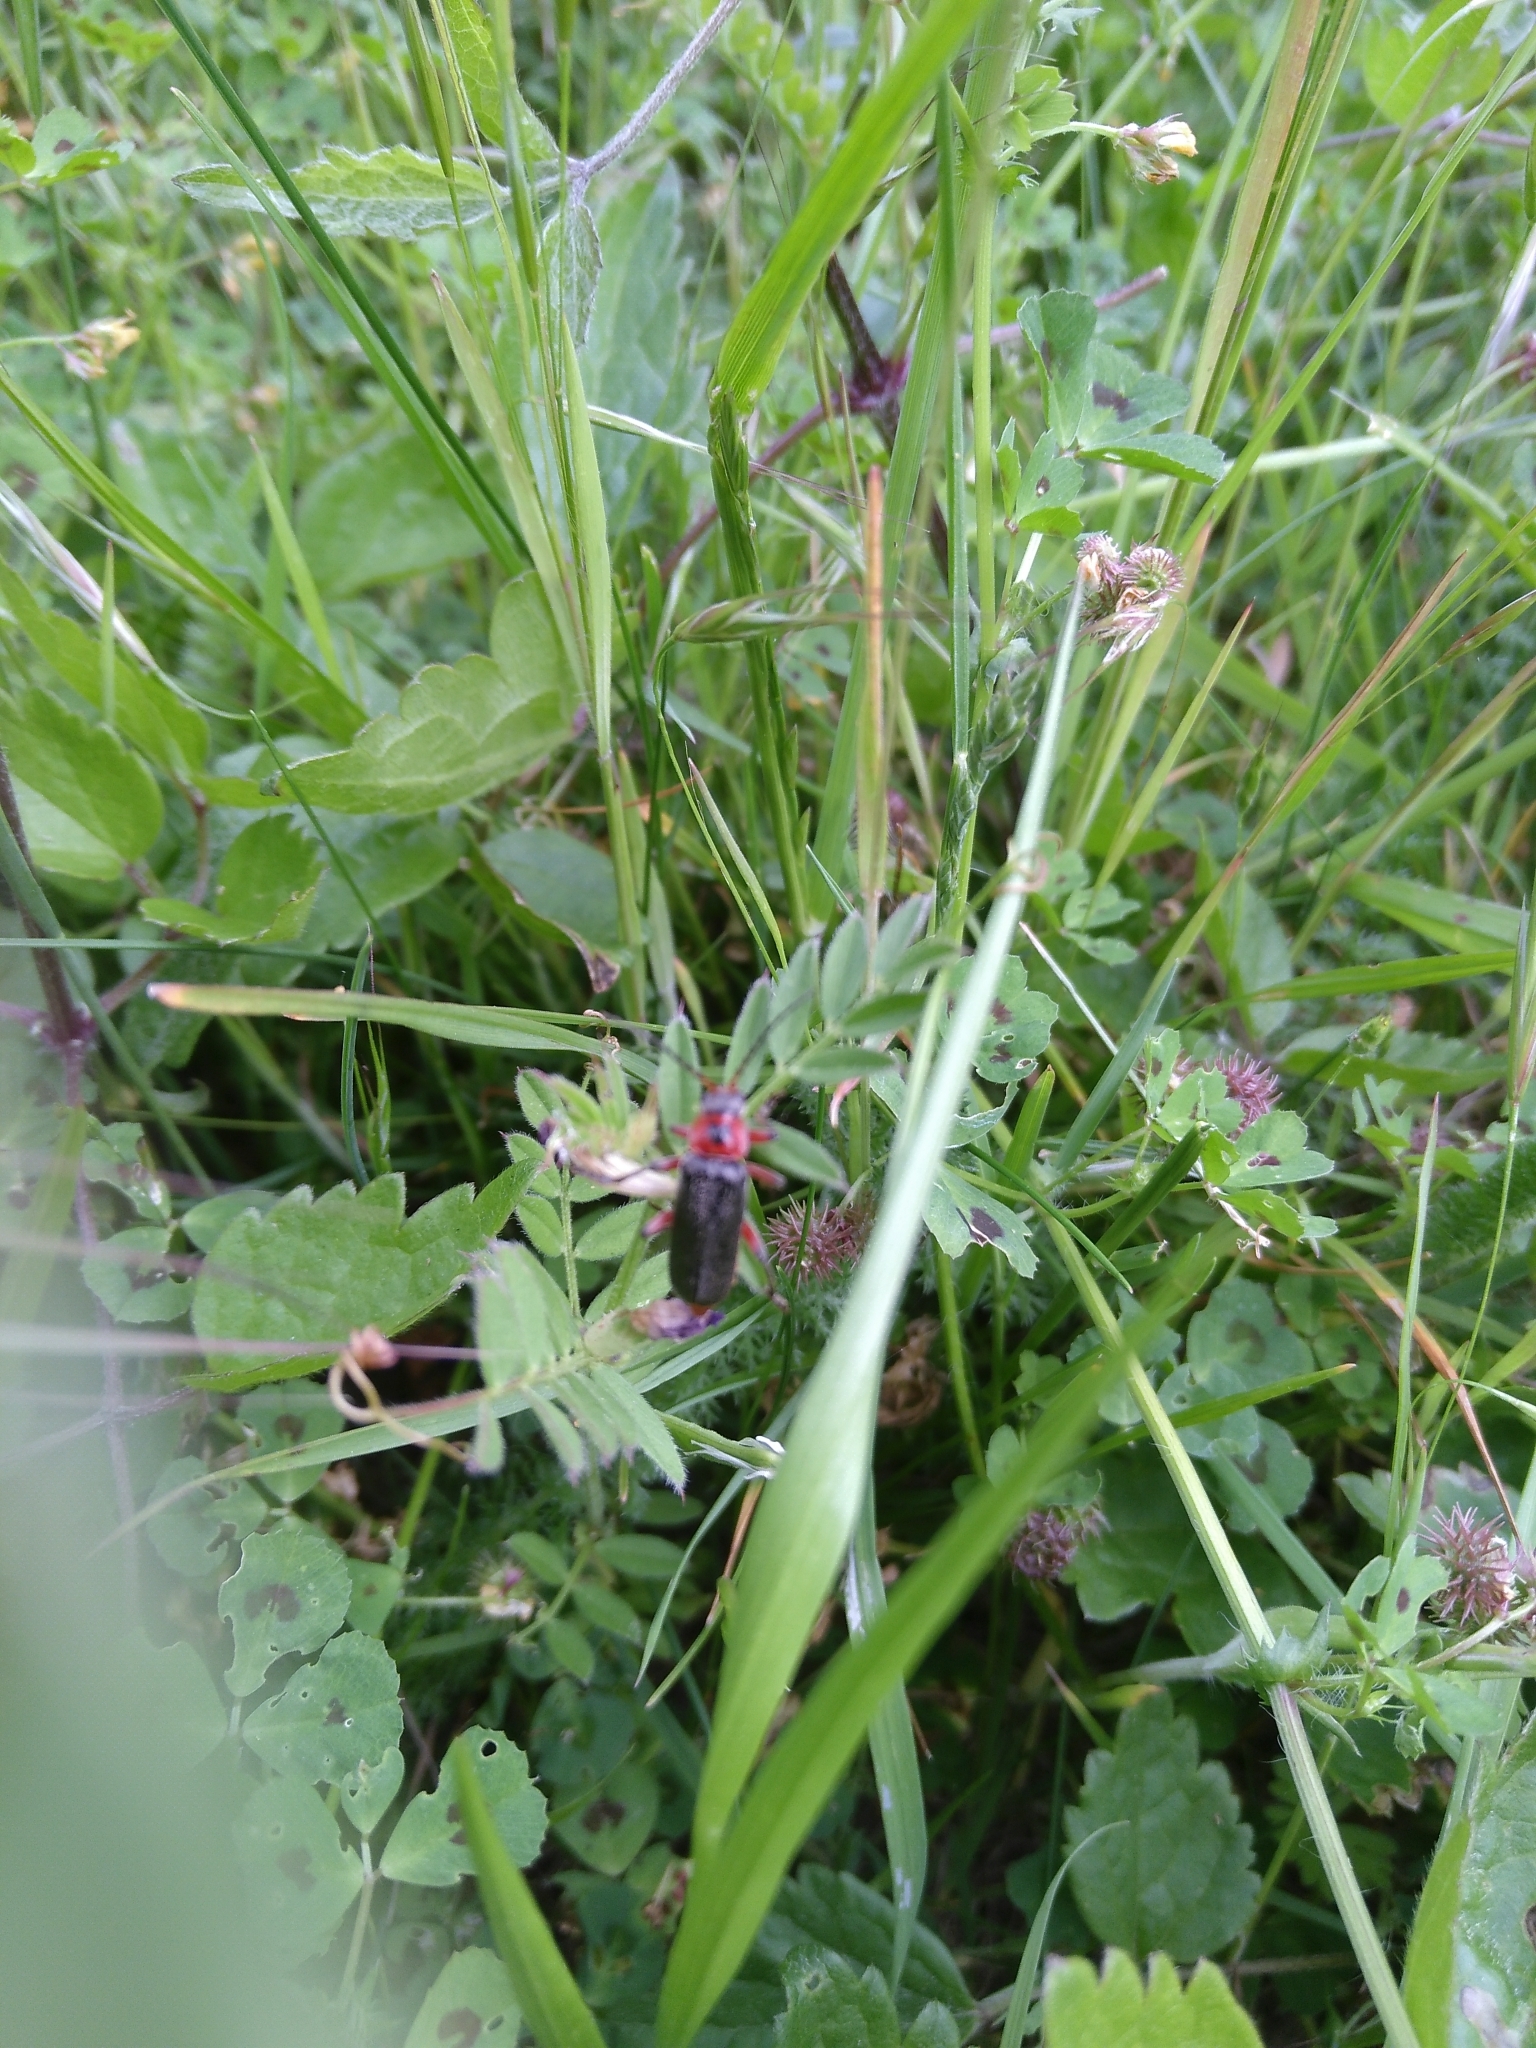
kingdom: Animalia
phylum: Arthropoda
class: Insecta
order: Coleoptera
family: Cantharidae
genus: Cantharis
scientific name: Cantharis rustica
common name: Soldier beetle
